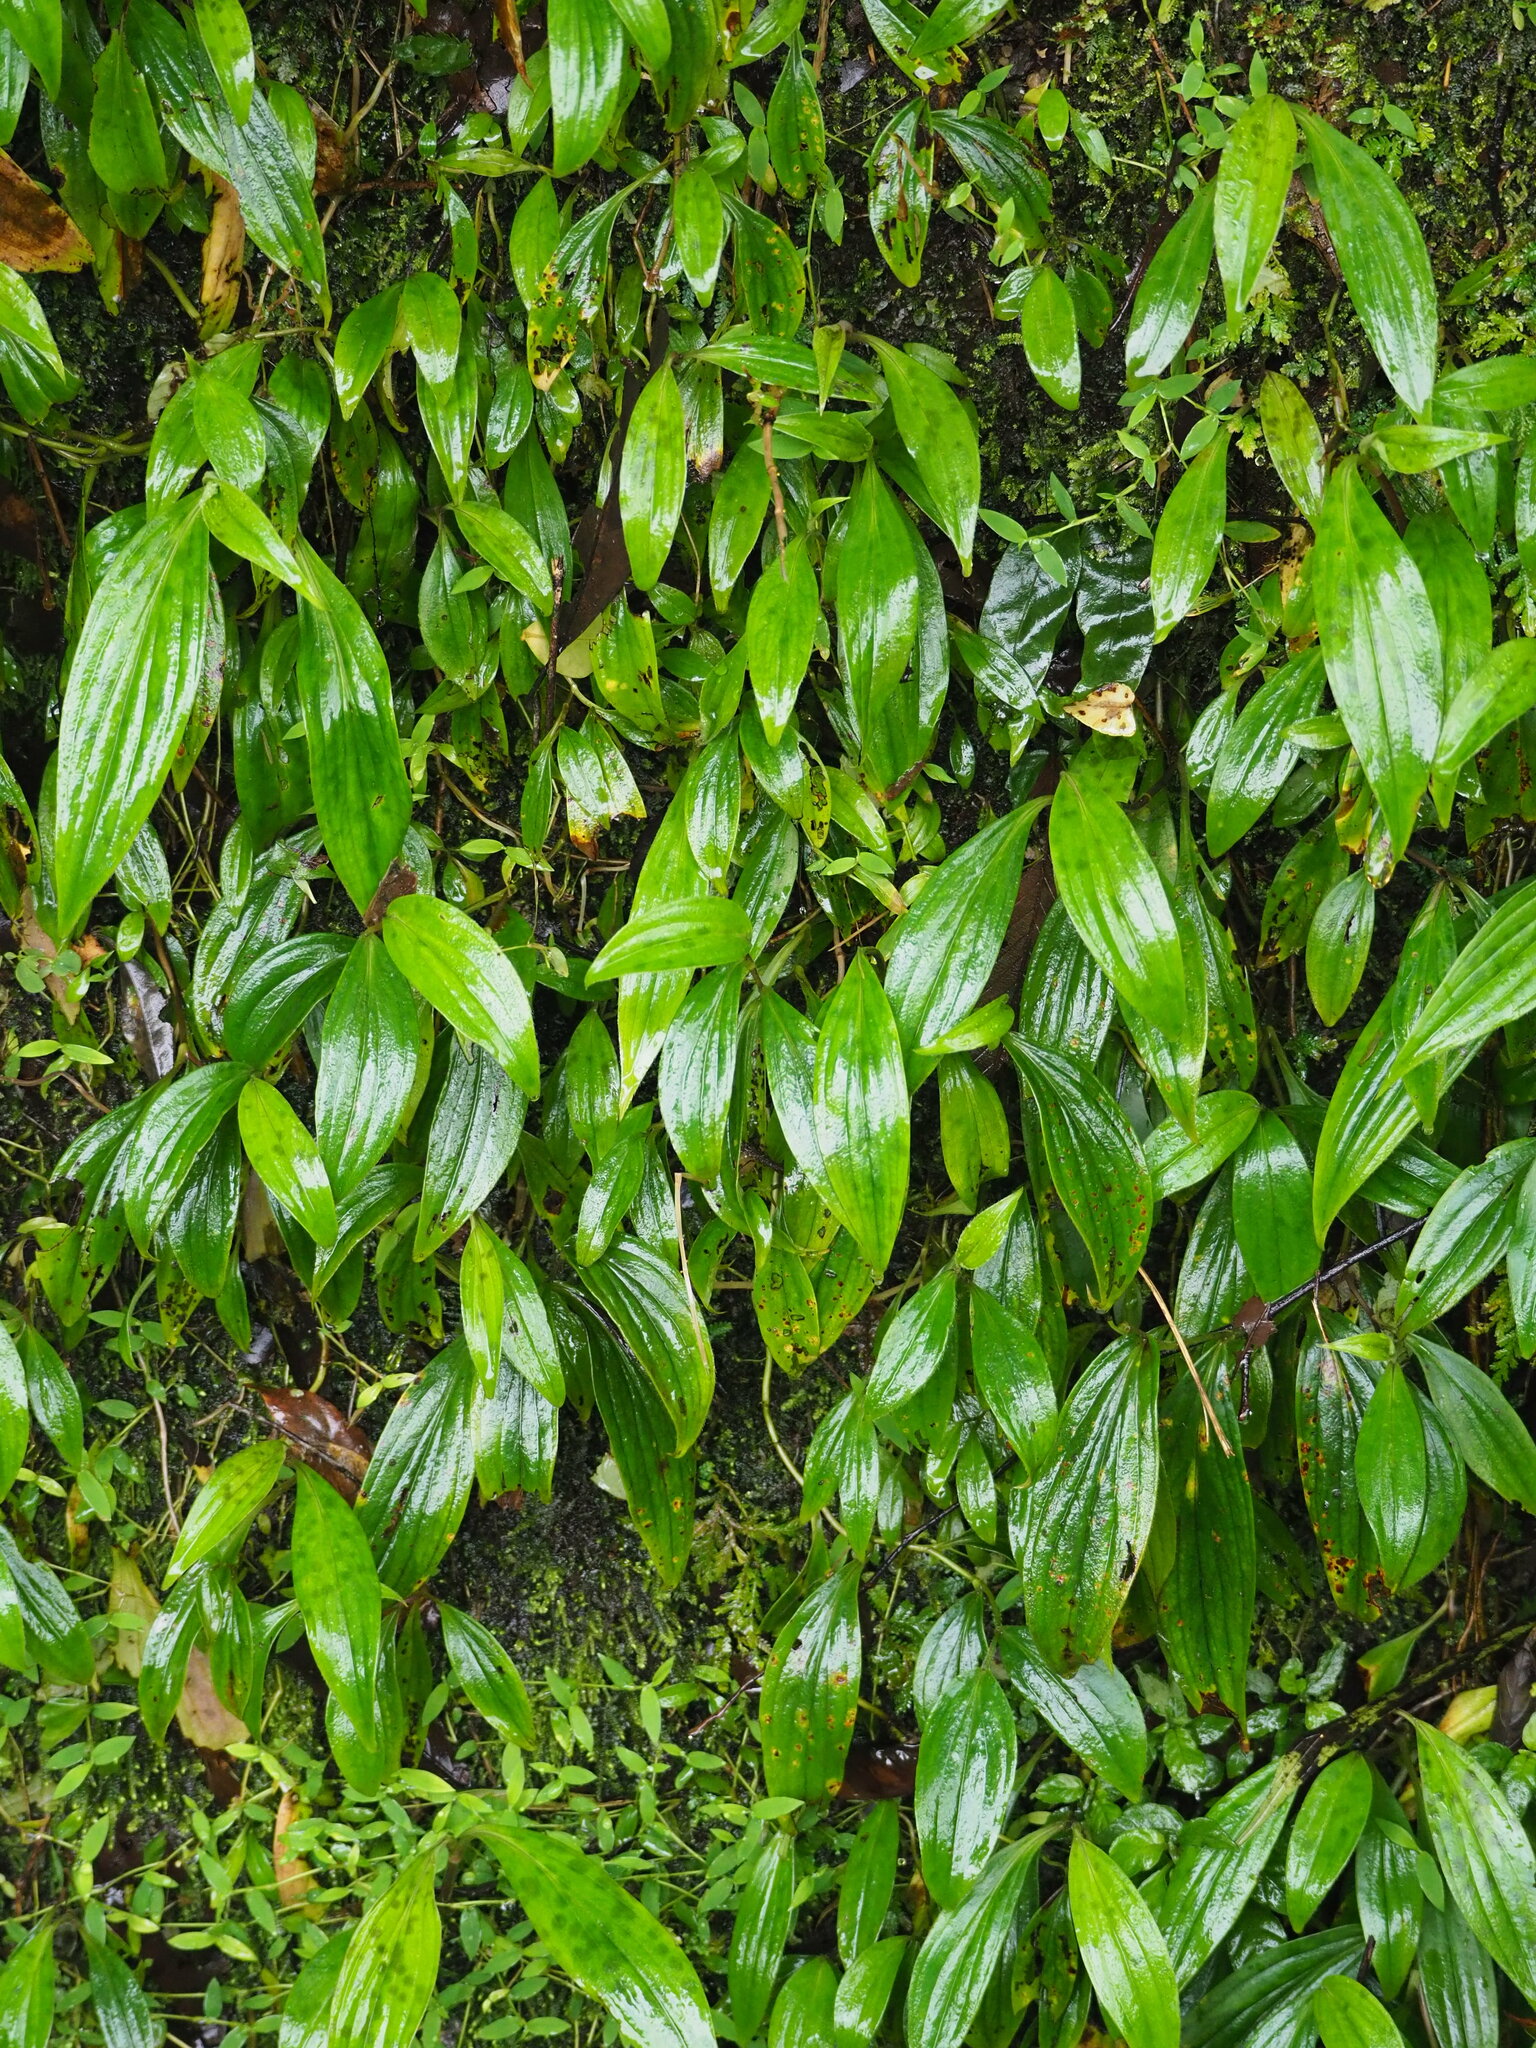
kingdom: Plantae
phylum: Tracheophyta
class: Liliopsida
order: Liliales
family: Liliaceae
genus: Tricyrtis
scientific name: Tricyrtis formosana
